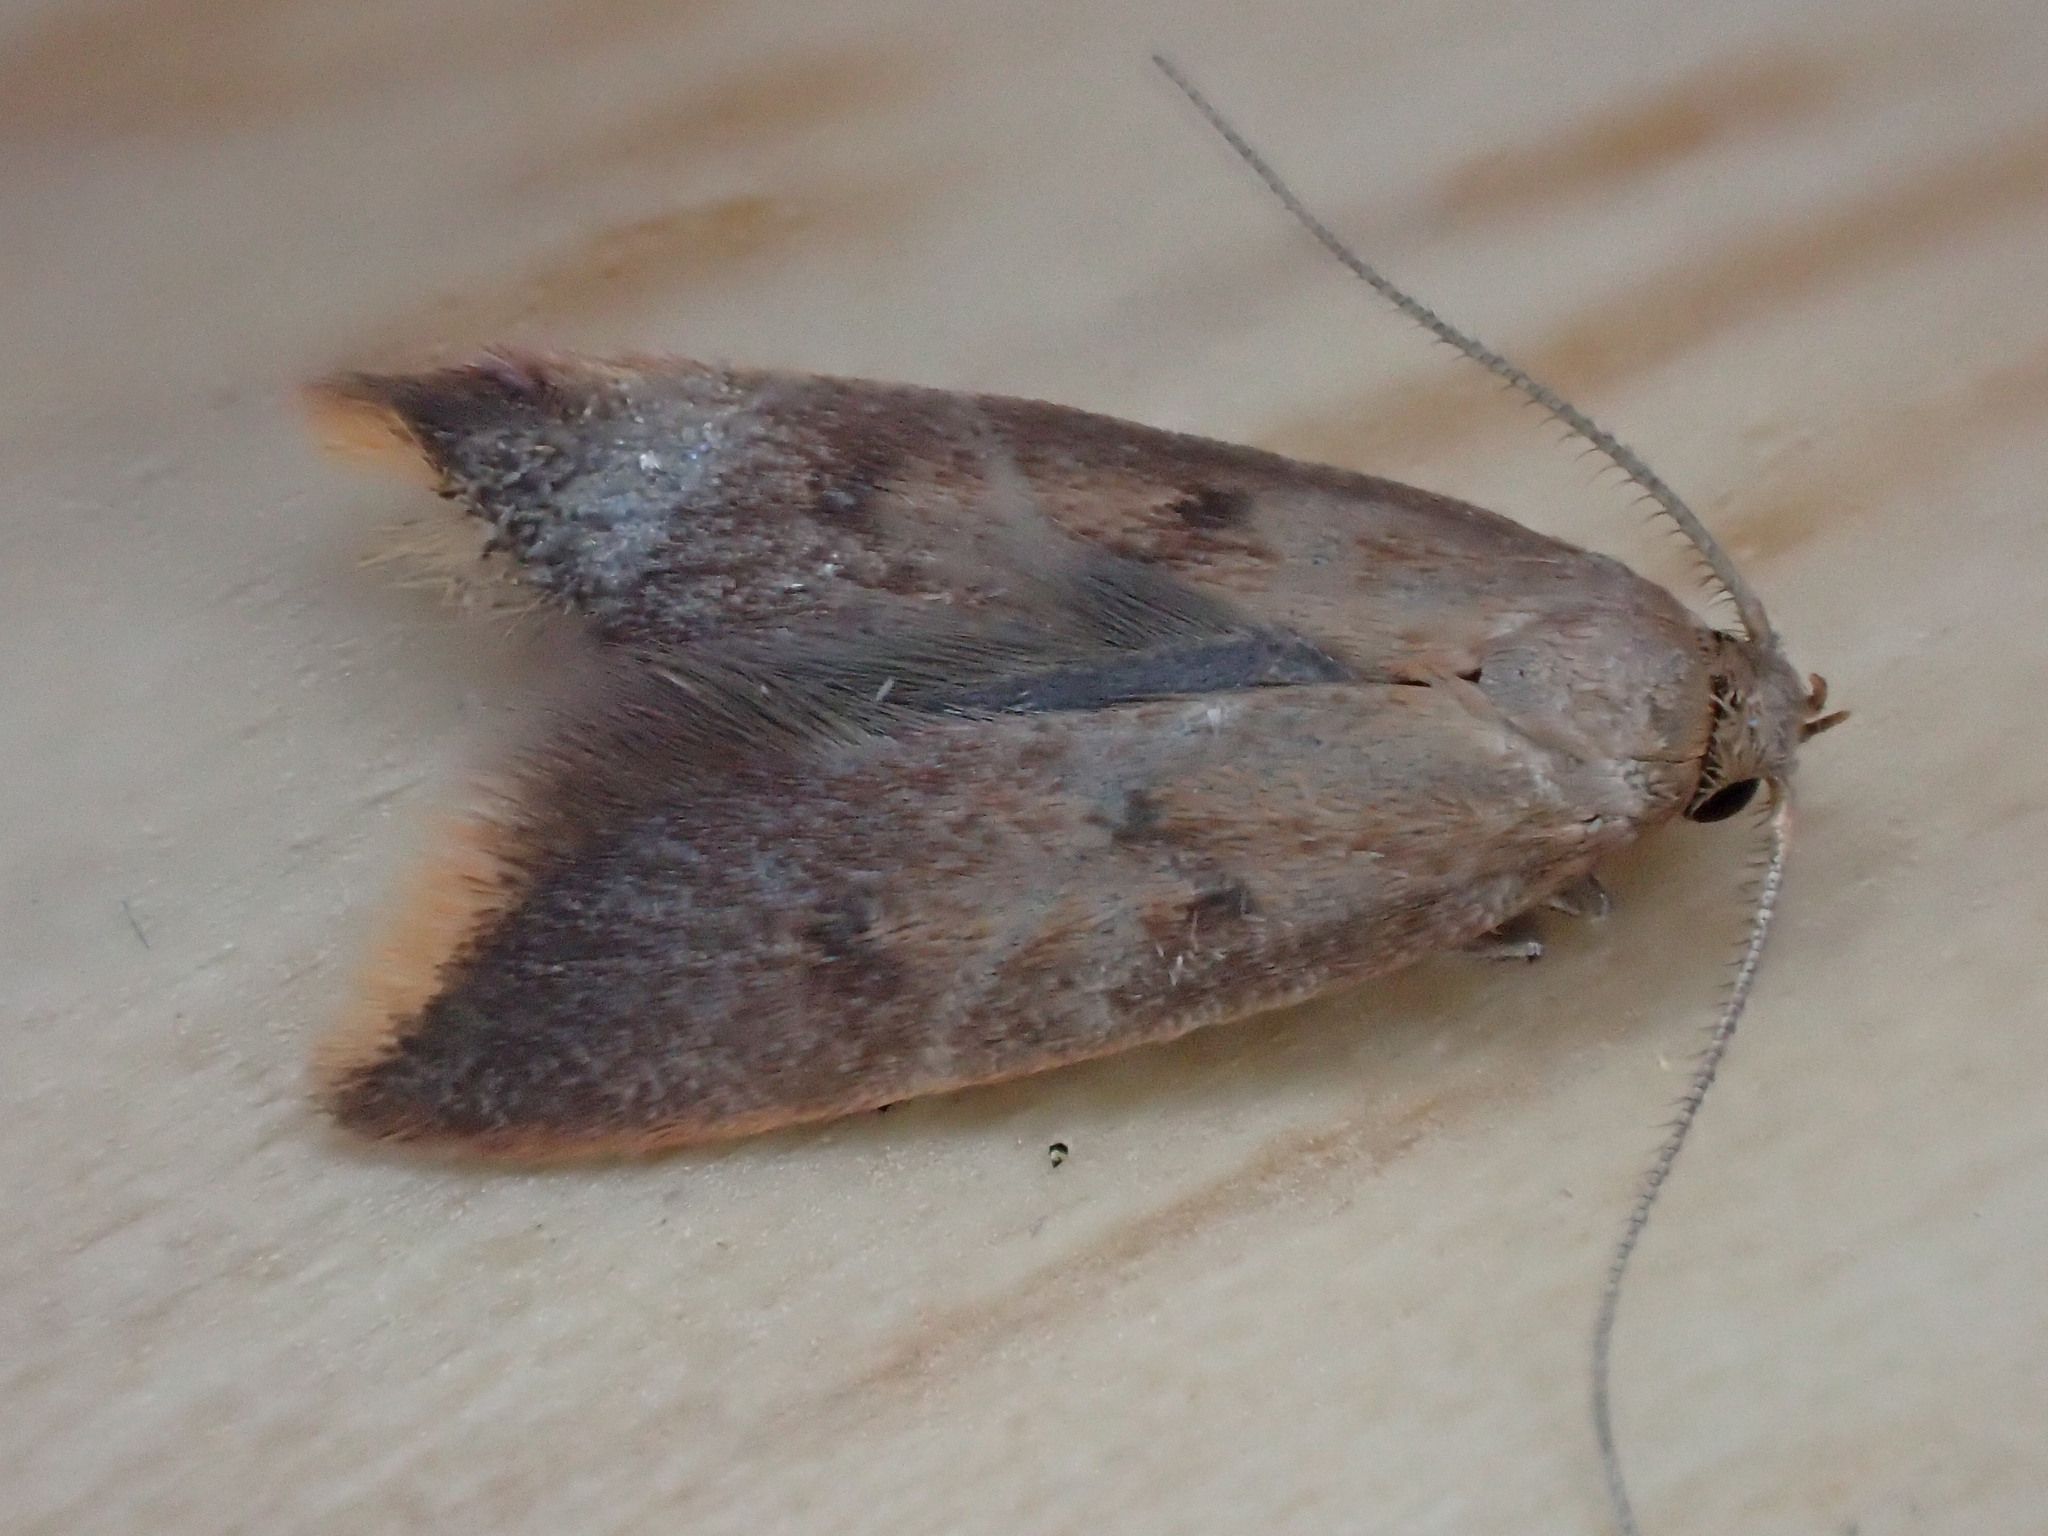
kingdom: Animalia
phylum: Arthropoda
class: Insecta
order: Lepidoptera
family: Oecophoridae
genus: Tachystola
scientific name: Tachystola acroxantha
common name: Ruddy streak
